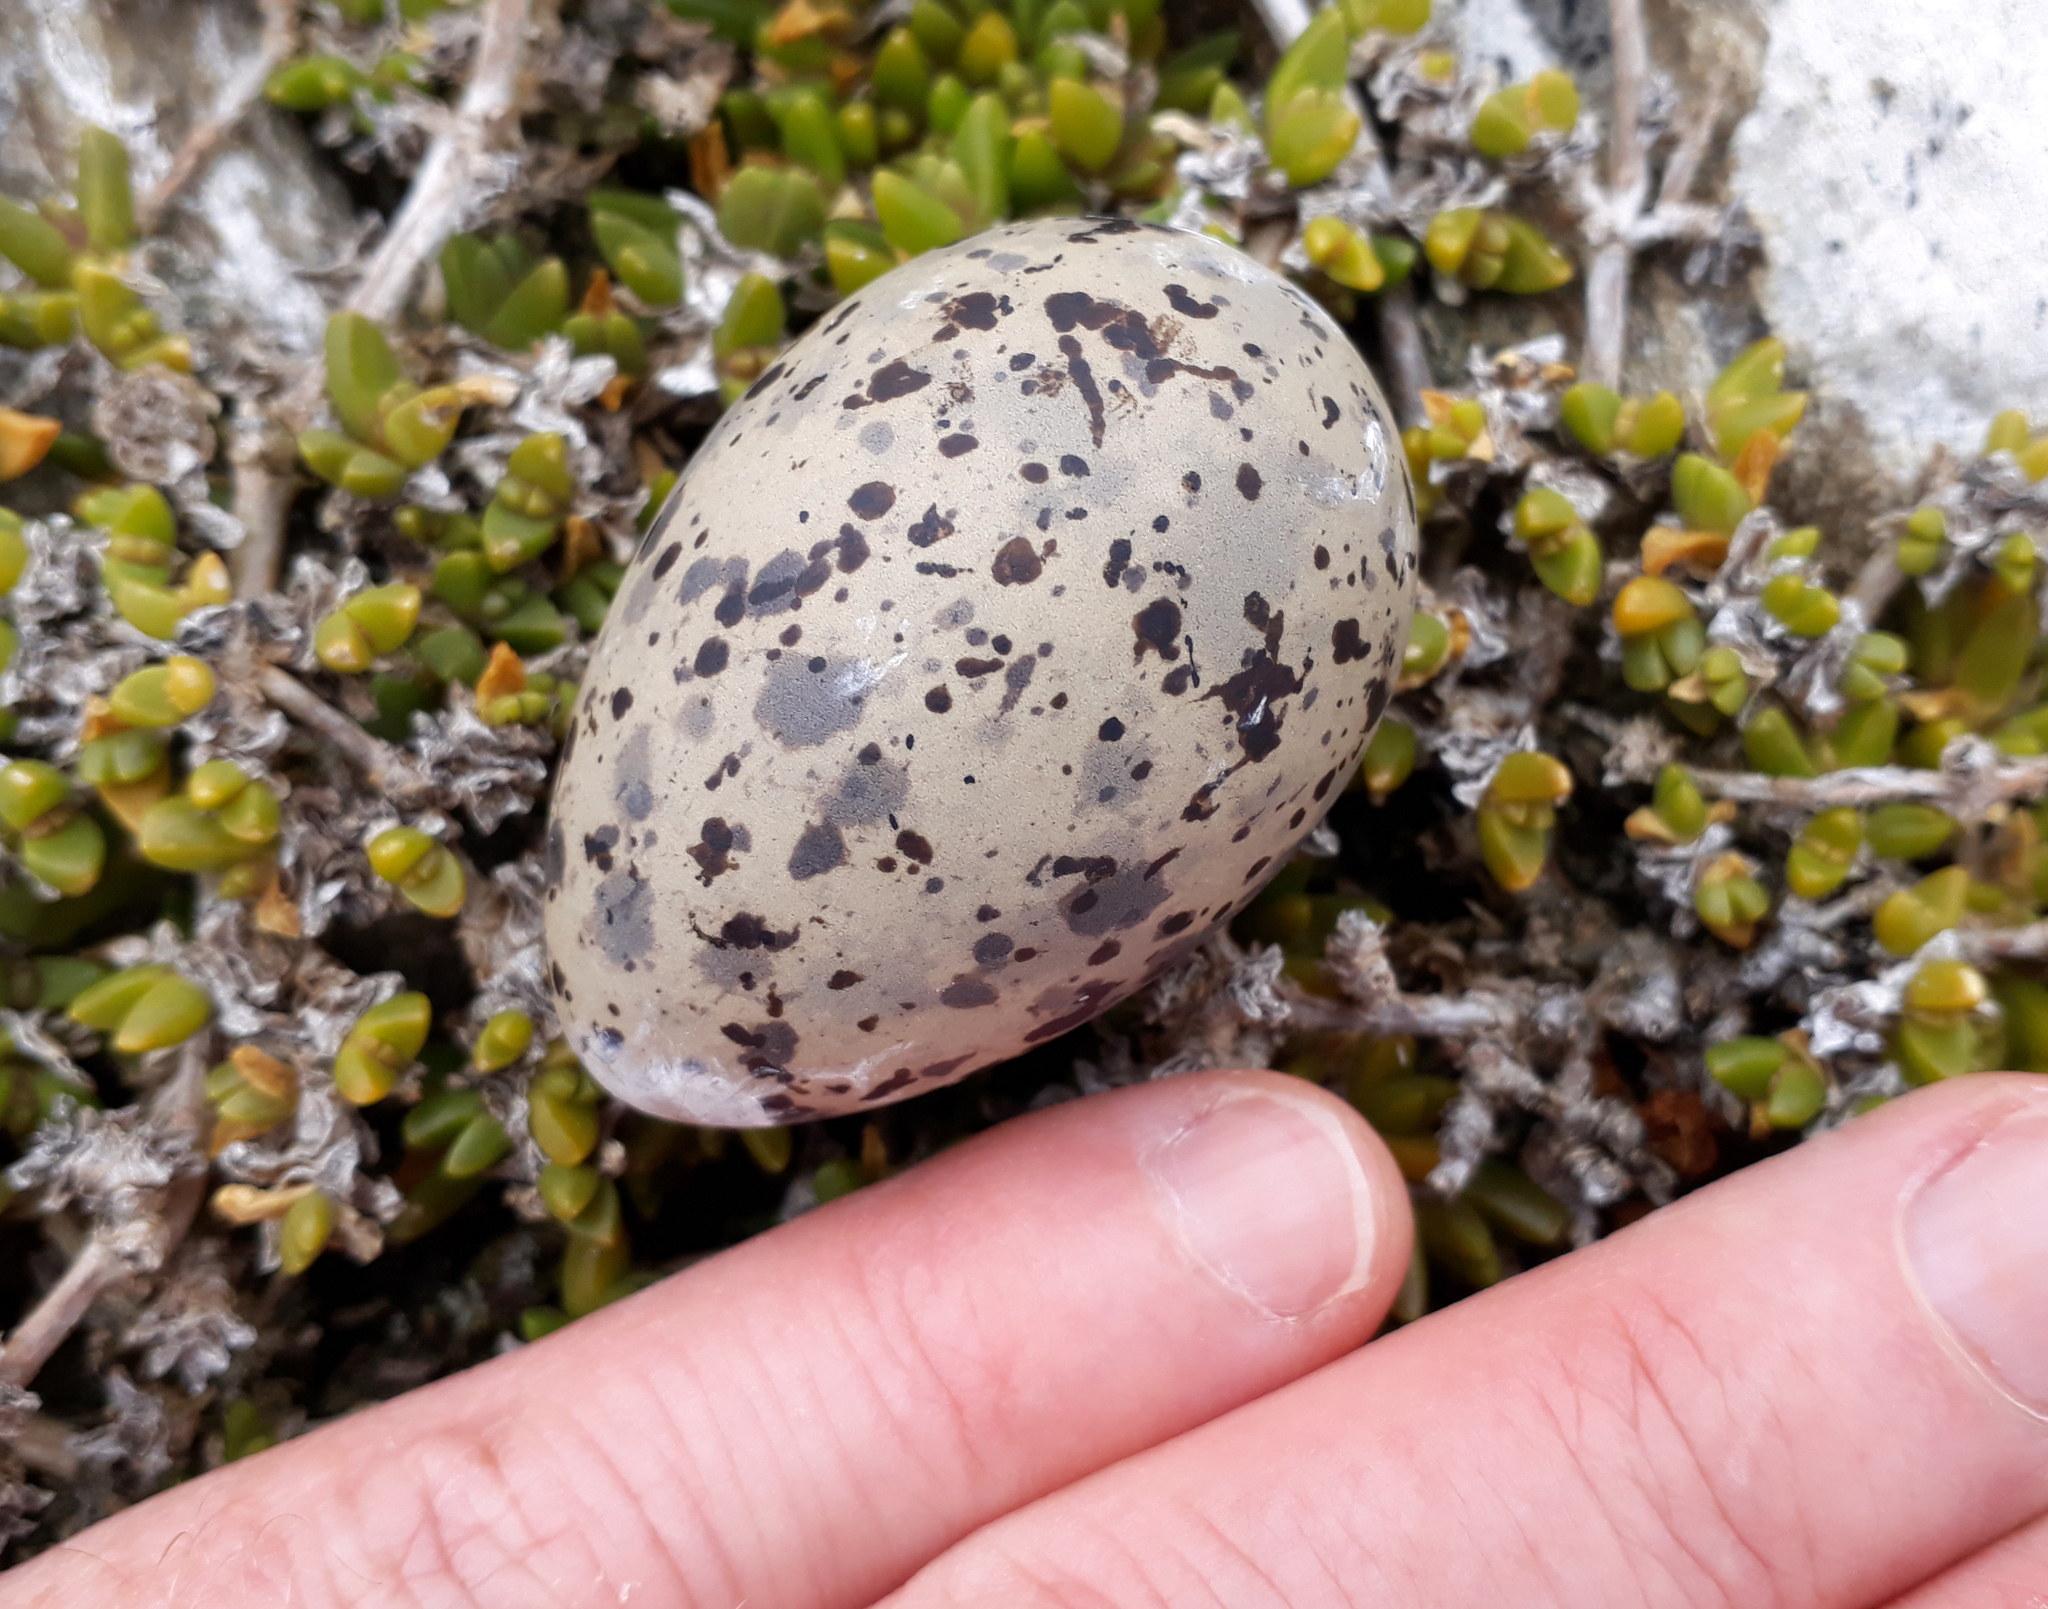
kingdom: Animalia
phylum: Chordata
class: Aves
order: Charadriiformes
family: Laridae
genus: Chroicocephalus
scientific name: Chroicocephalus novaehollandiae
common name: Silver gull
